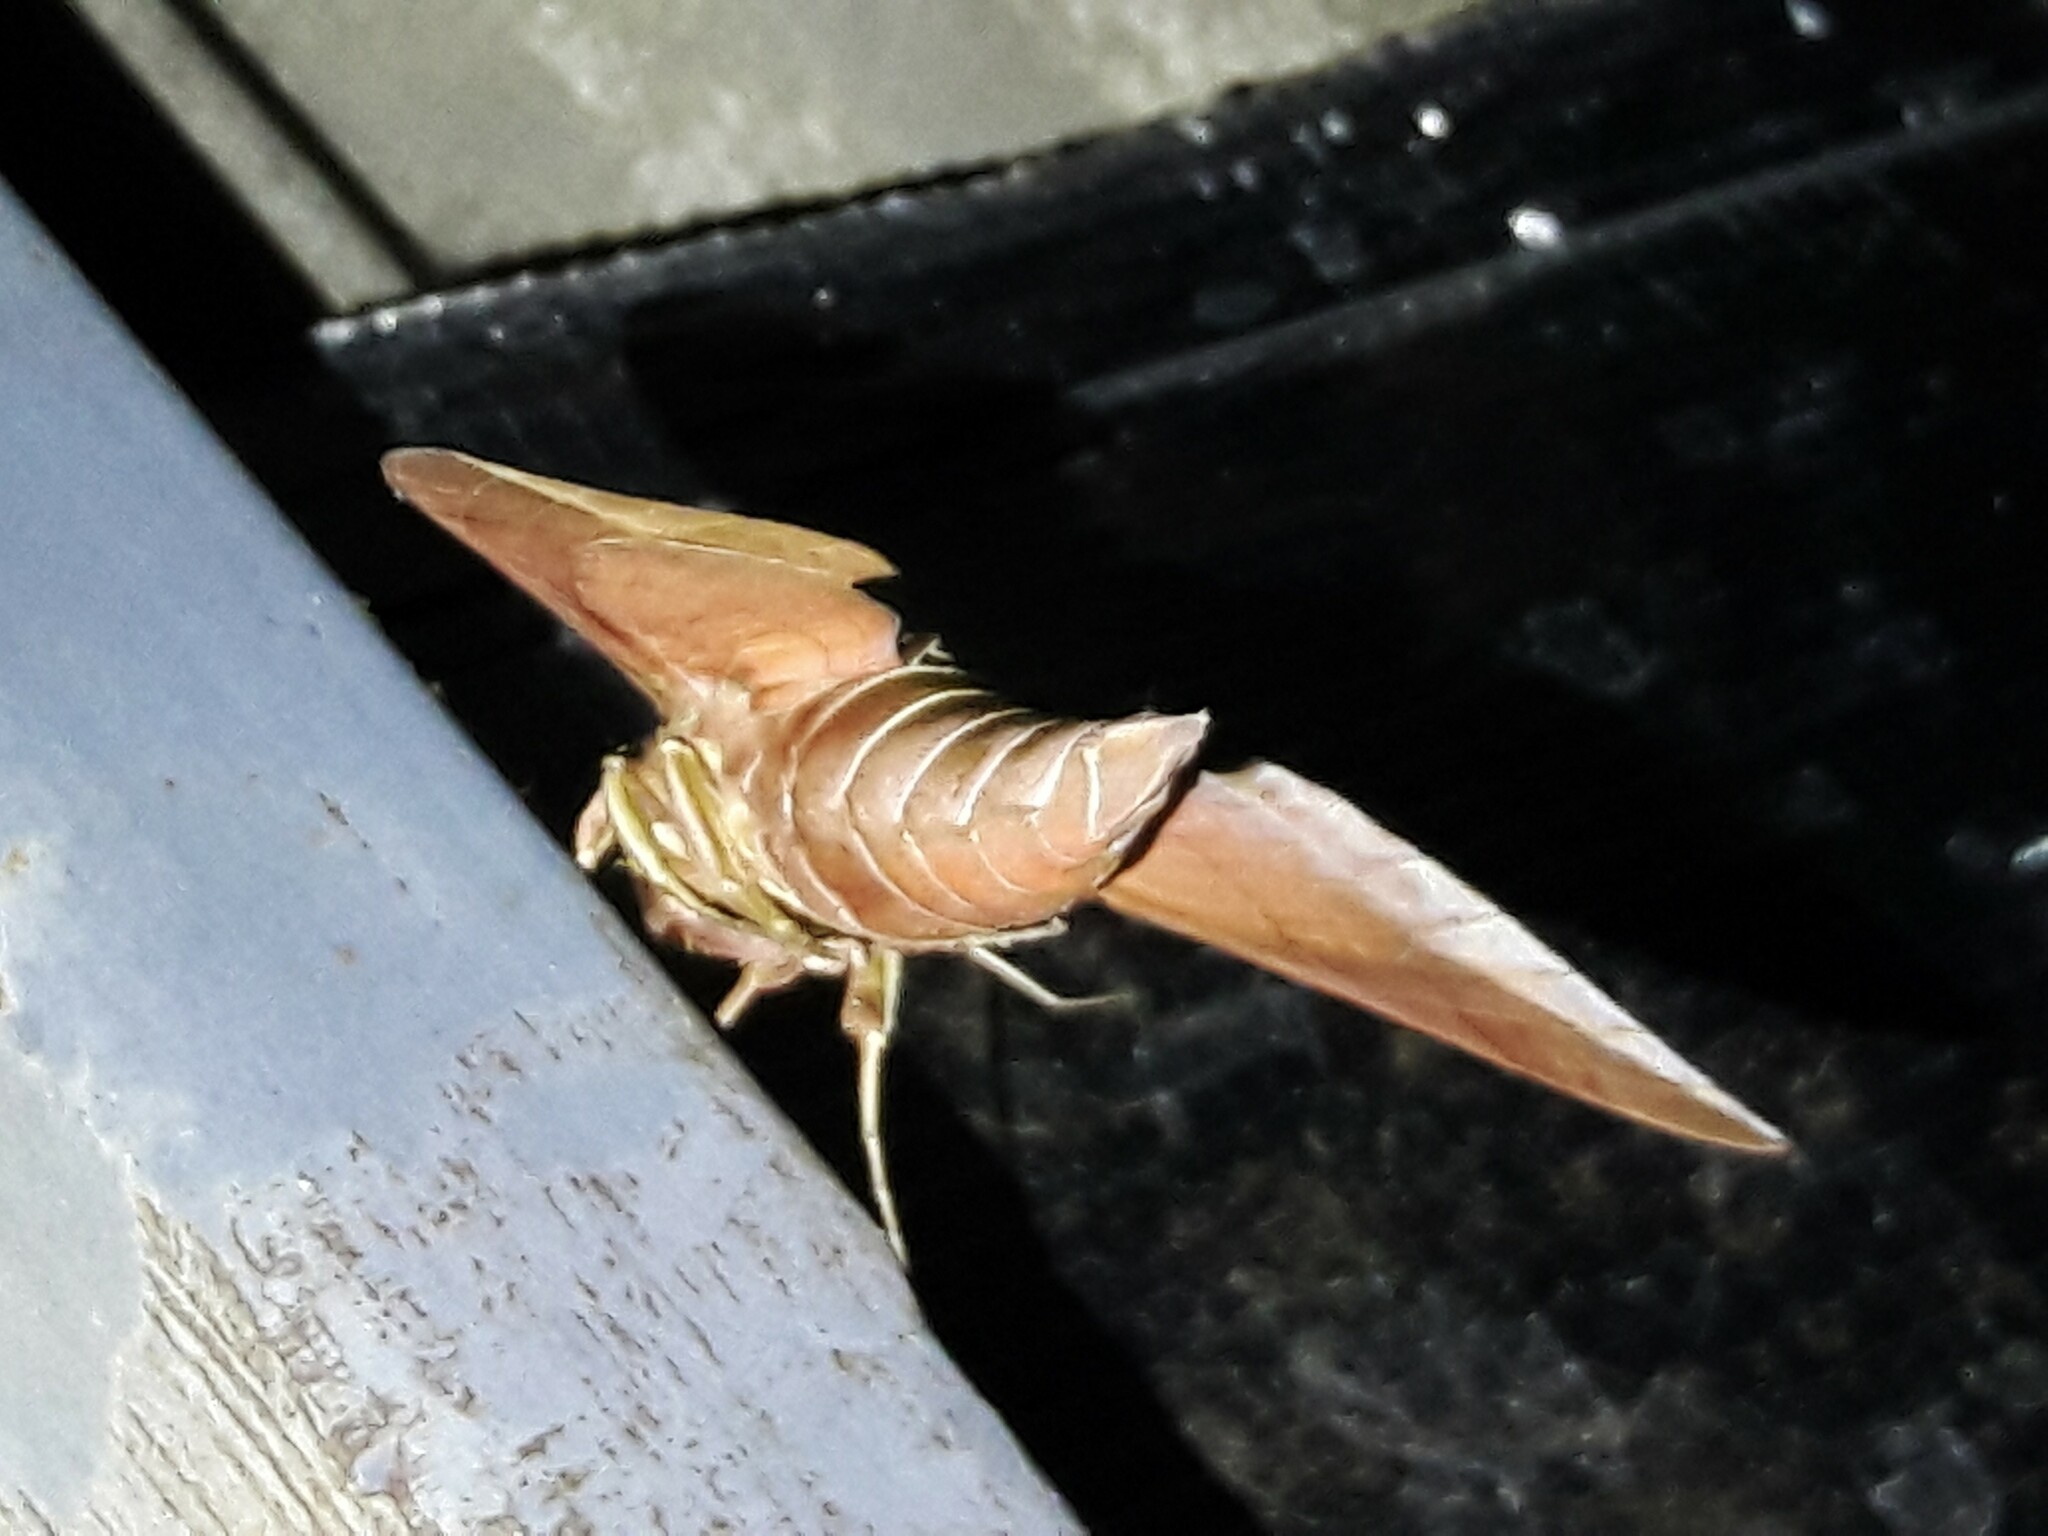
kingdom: Animalia
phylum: Arthropoda
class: Insecta
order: Lepidoptera
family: Sphingidae
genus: Eumorpha
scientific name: Eumorpha anchemolus
